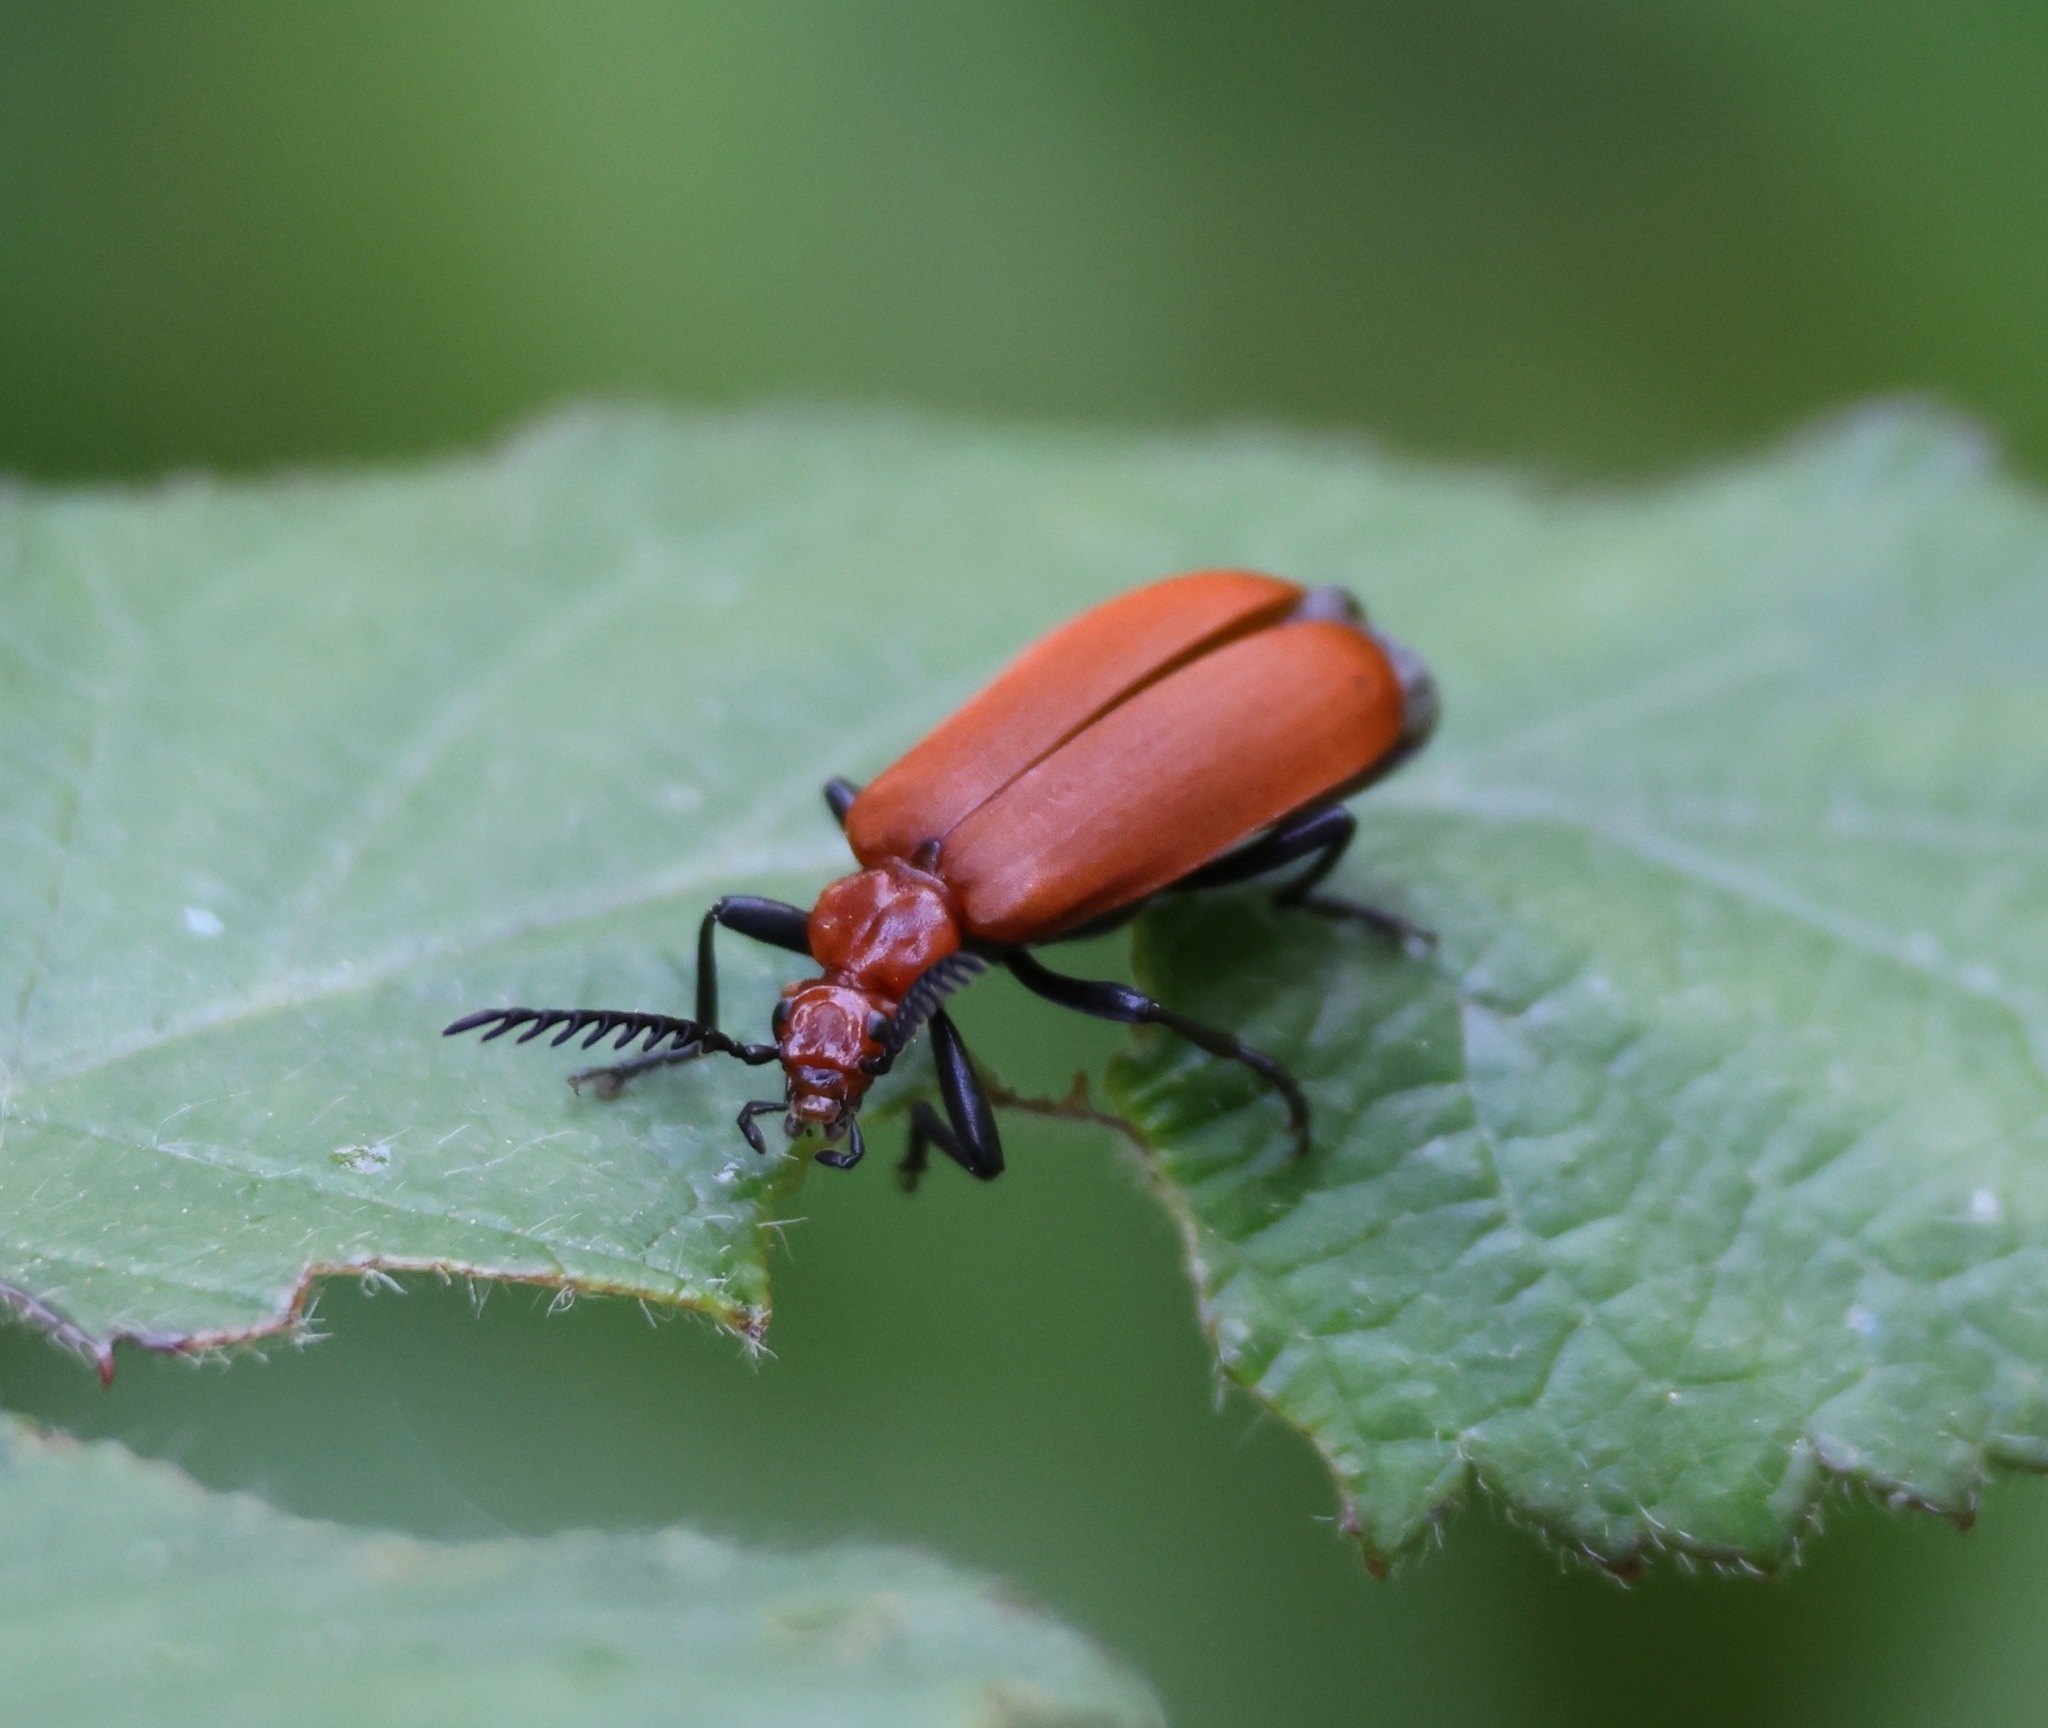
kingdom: Animalia
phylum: Arthropoda
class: Insecta
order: Coleoptera
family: Pyrochroidae
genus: Pyrochroa
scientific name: Pyrochroa serraticornis
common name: Red-headed cardinal beetle
